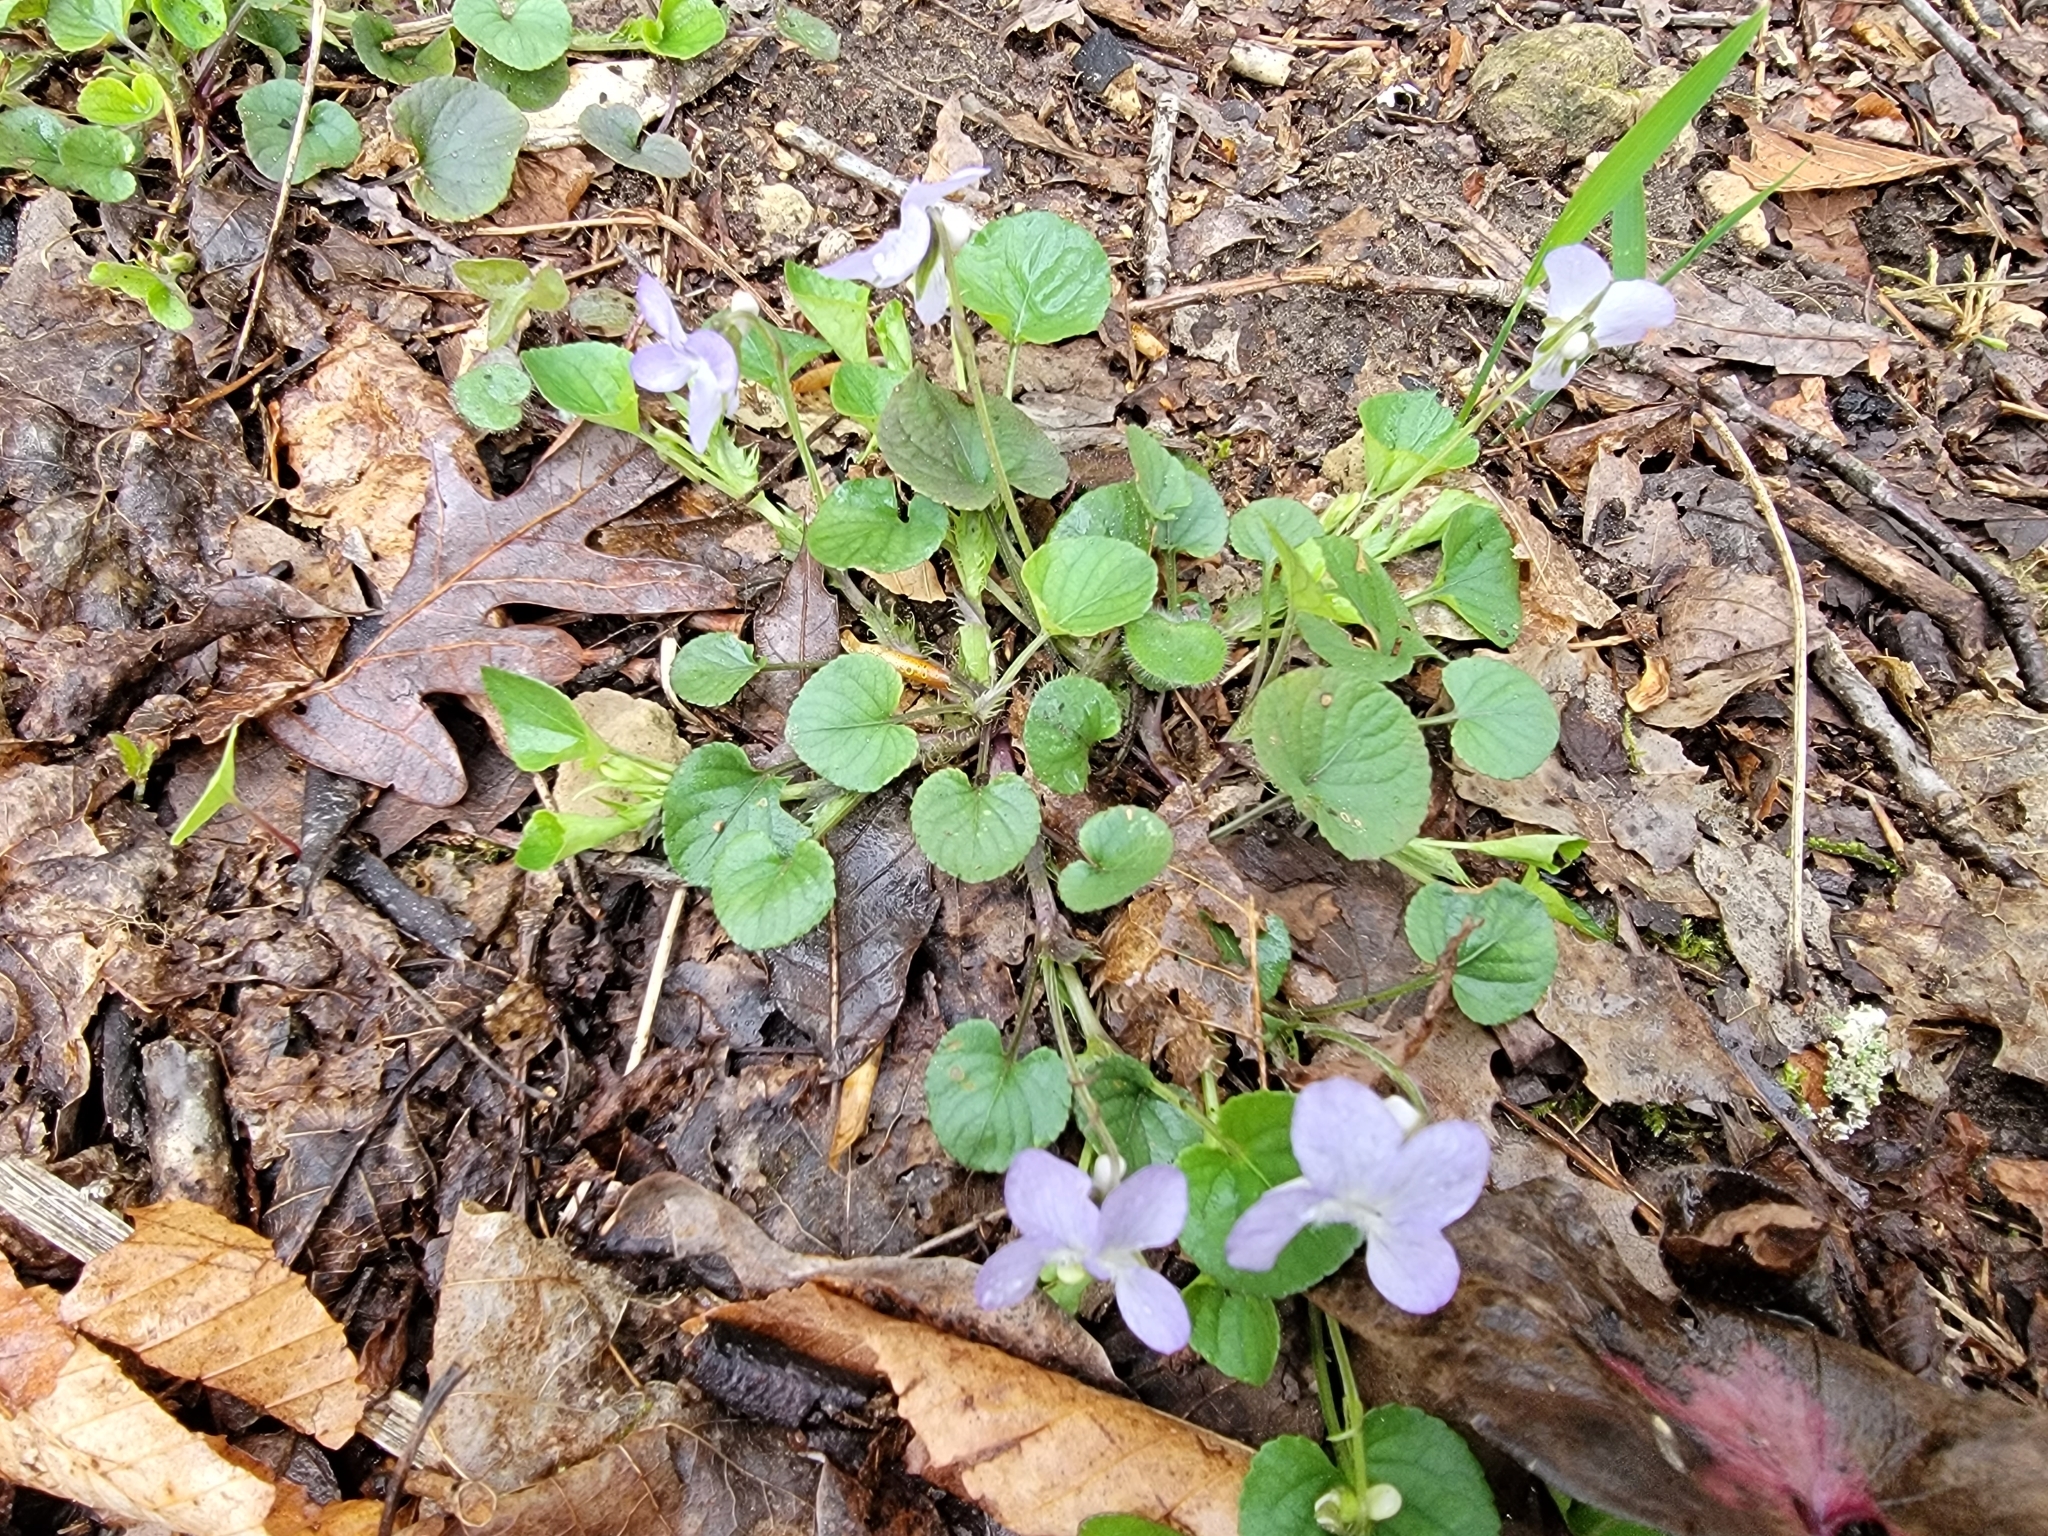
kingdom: Plantae
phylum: Tracheophyta
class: Magnoliopsida
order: Malpighiales
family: Violaceae
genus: Viola
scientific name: Viola walteri
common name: Prostrate southern violet
